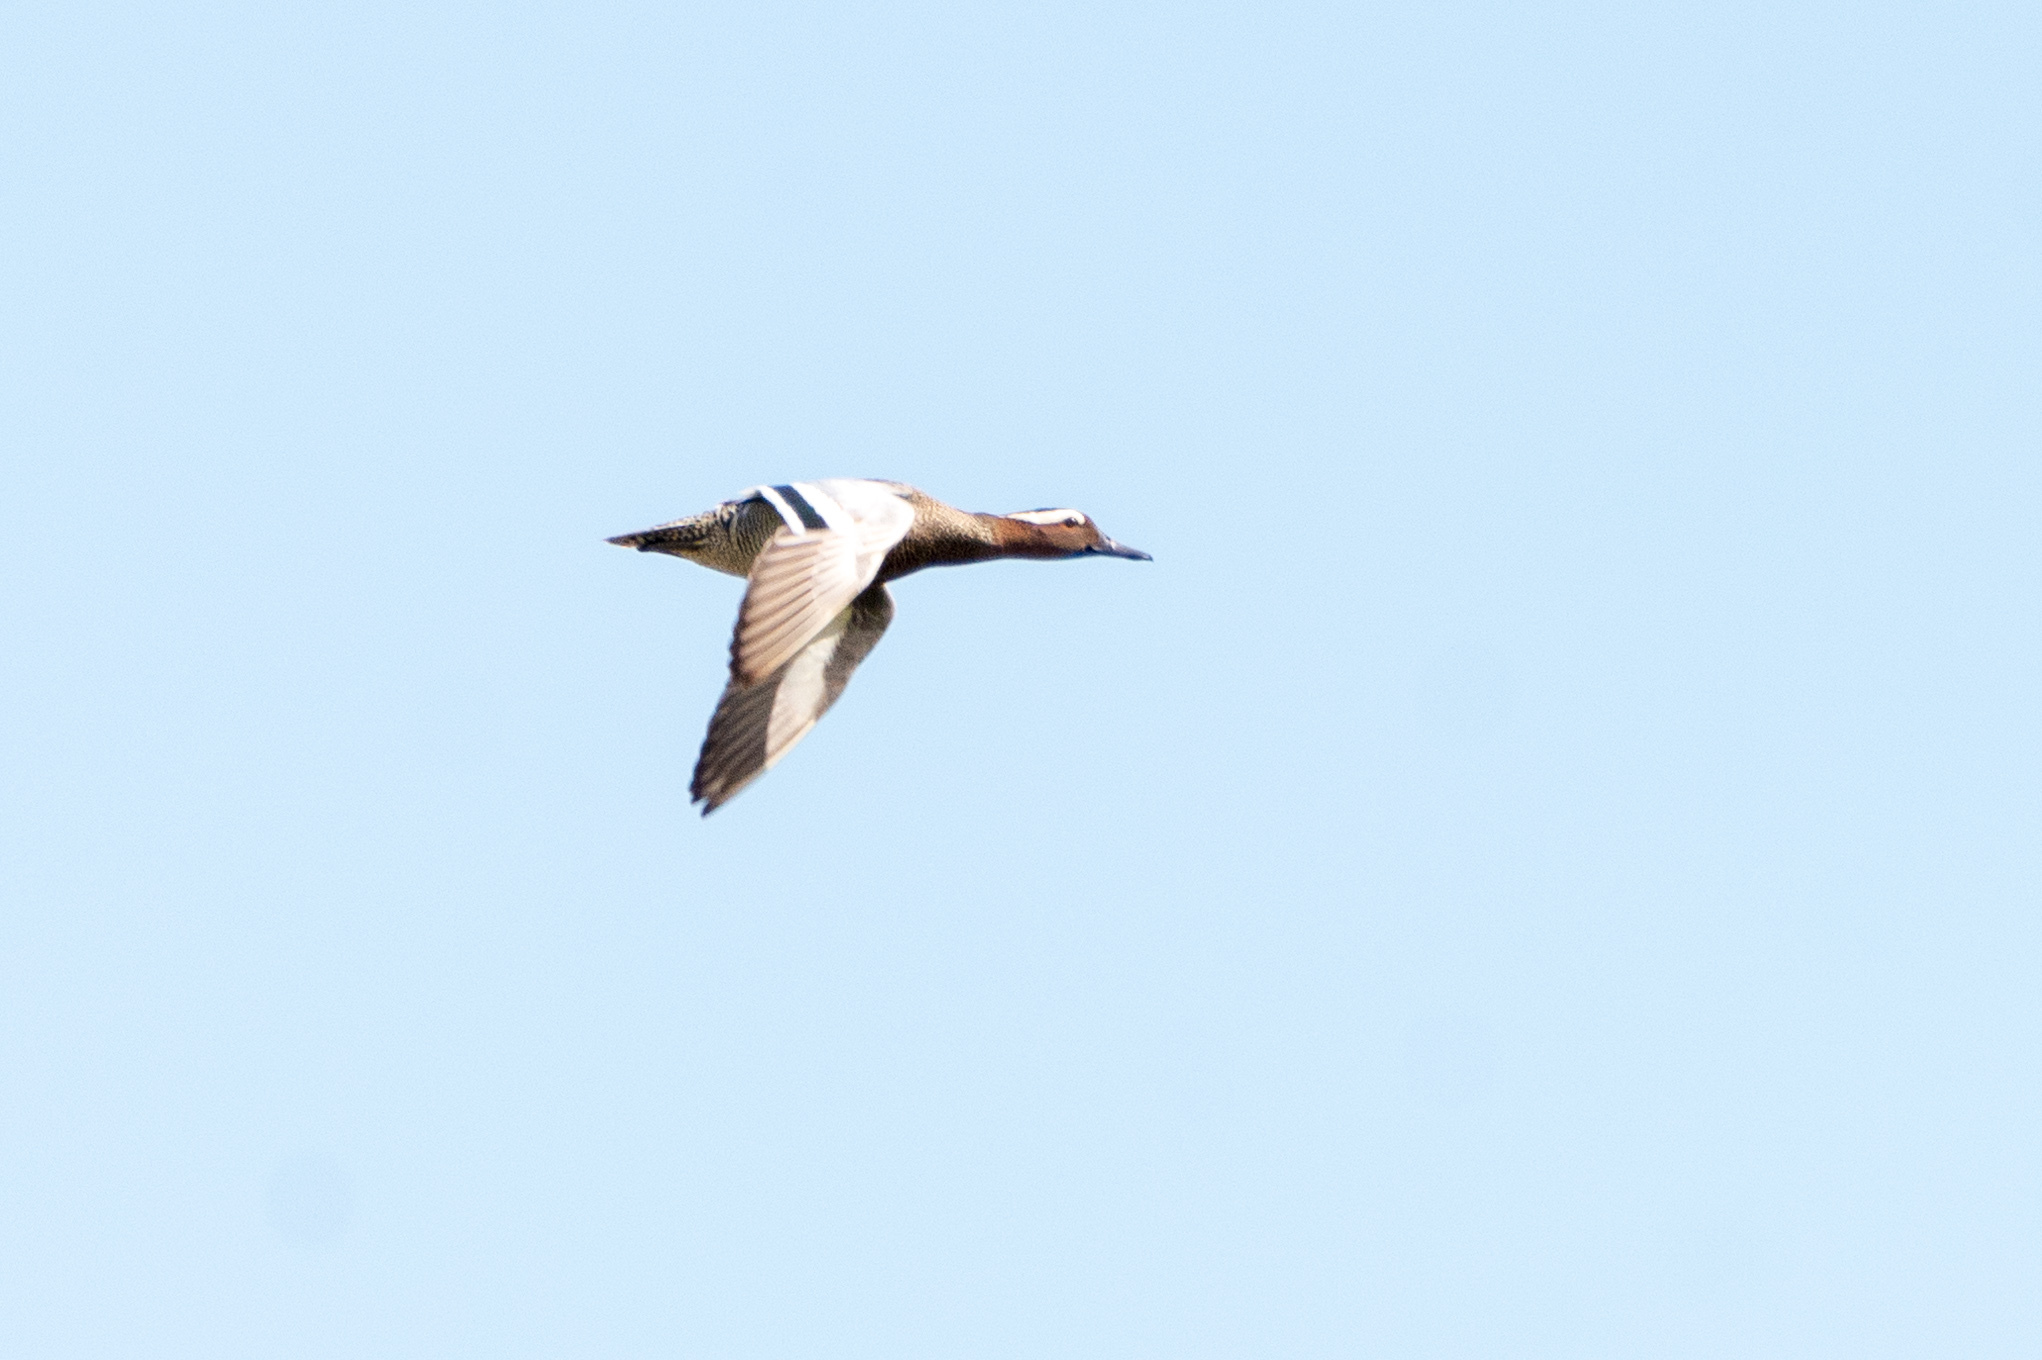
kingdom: Animalia
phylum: Chordata
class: Aves
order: Anseriformes
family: Anatidae
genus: Spatula
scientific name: Spatula querquedula
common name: Garganey
